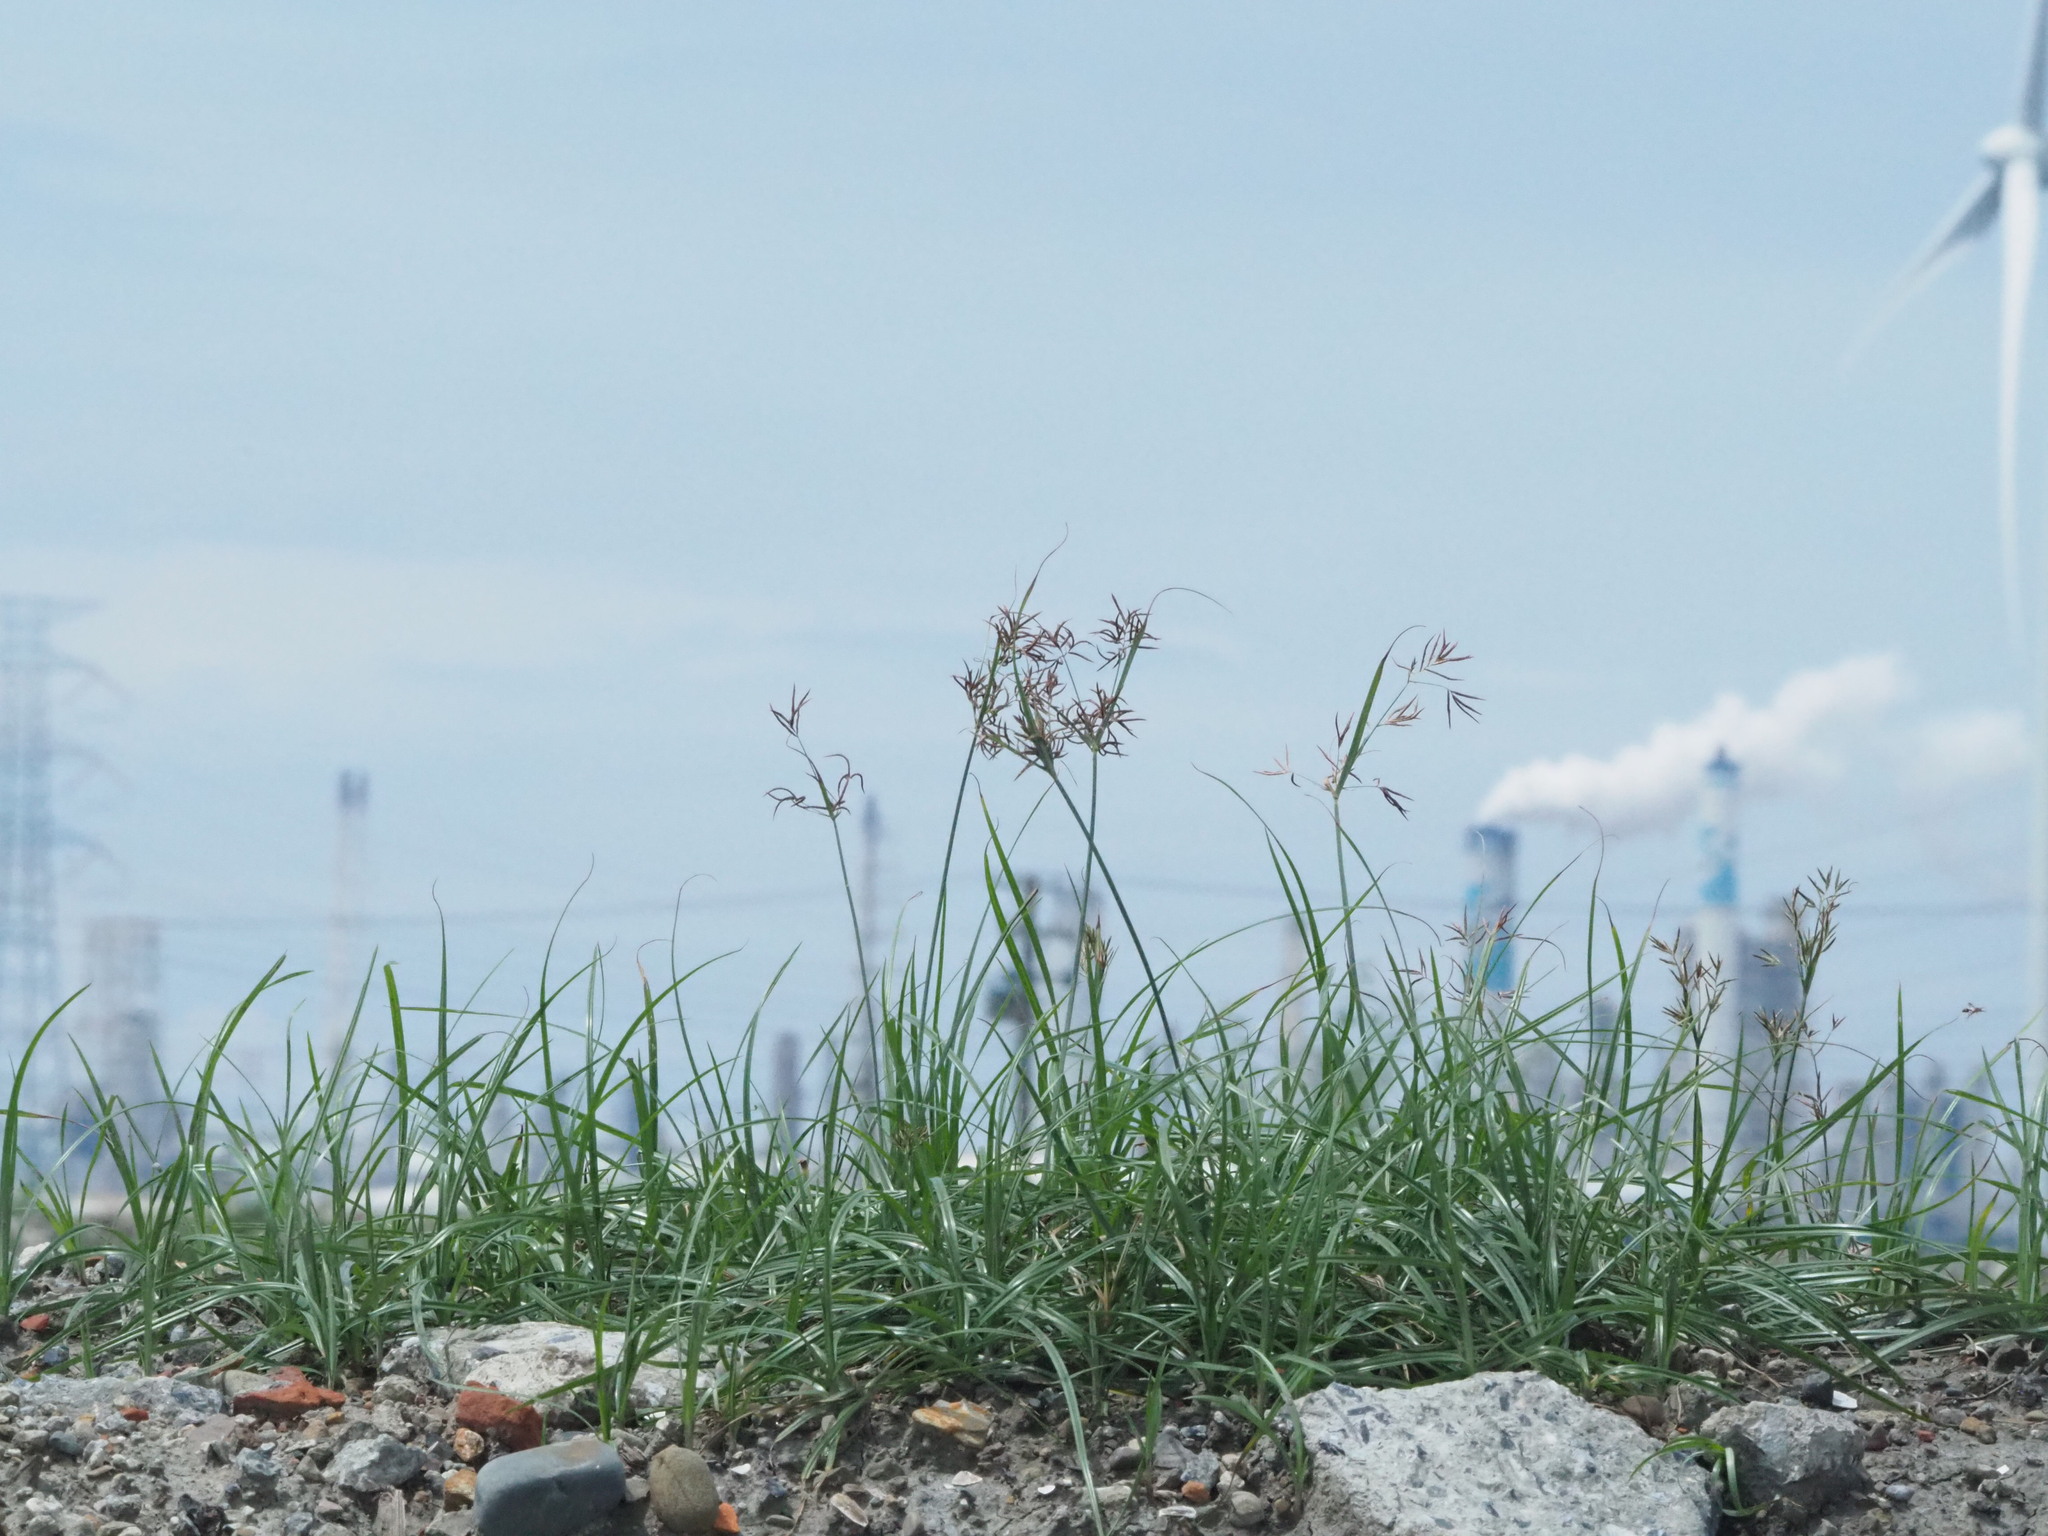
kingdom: Plantae
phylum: Tracheophyta
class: Liliopsida
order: Poales
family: Cyperaceae
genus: Cyperus
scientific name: Cyperus rotundus
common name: Nutgrass
